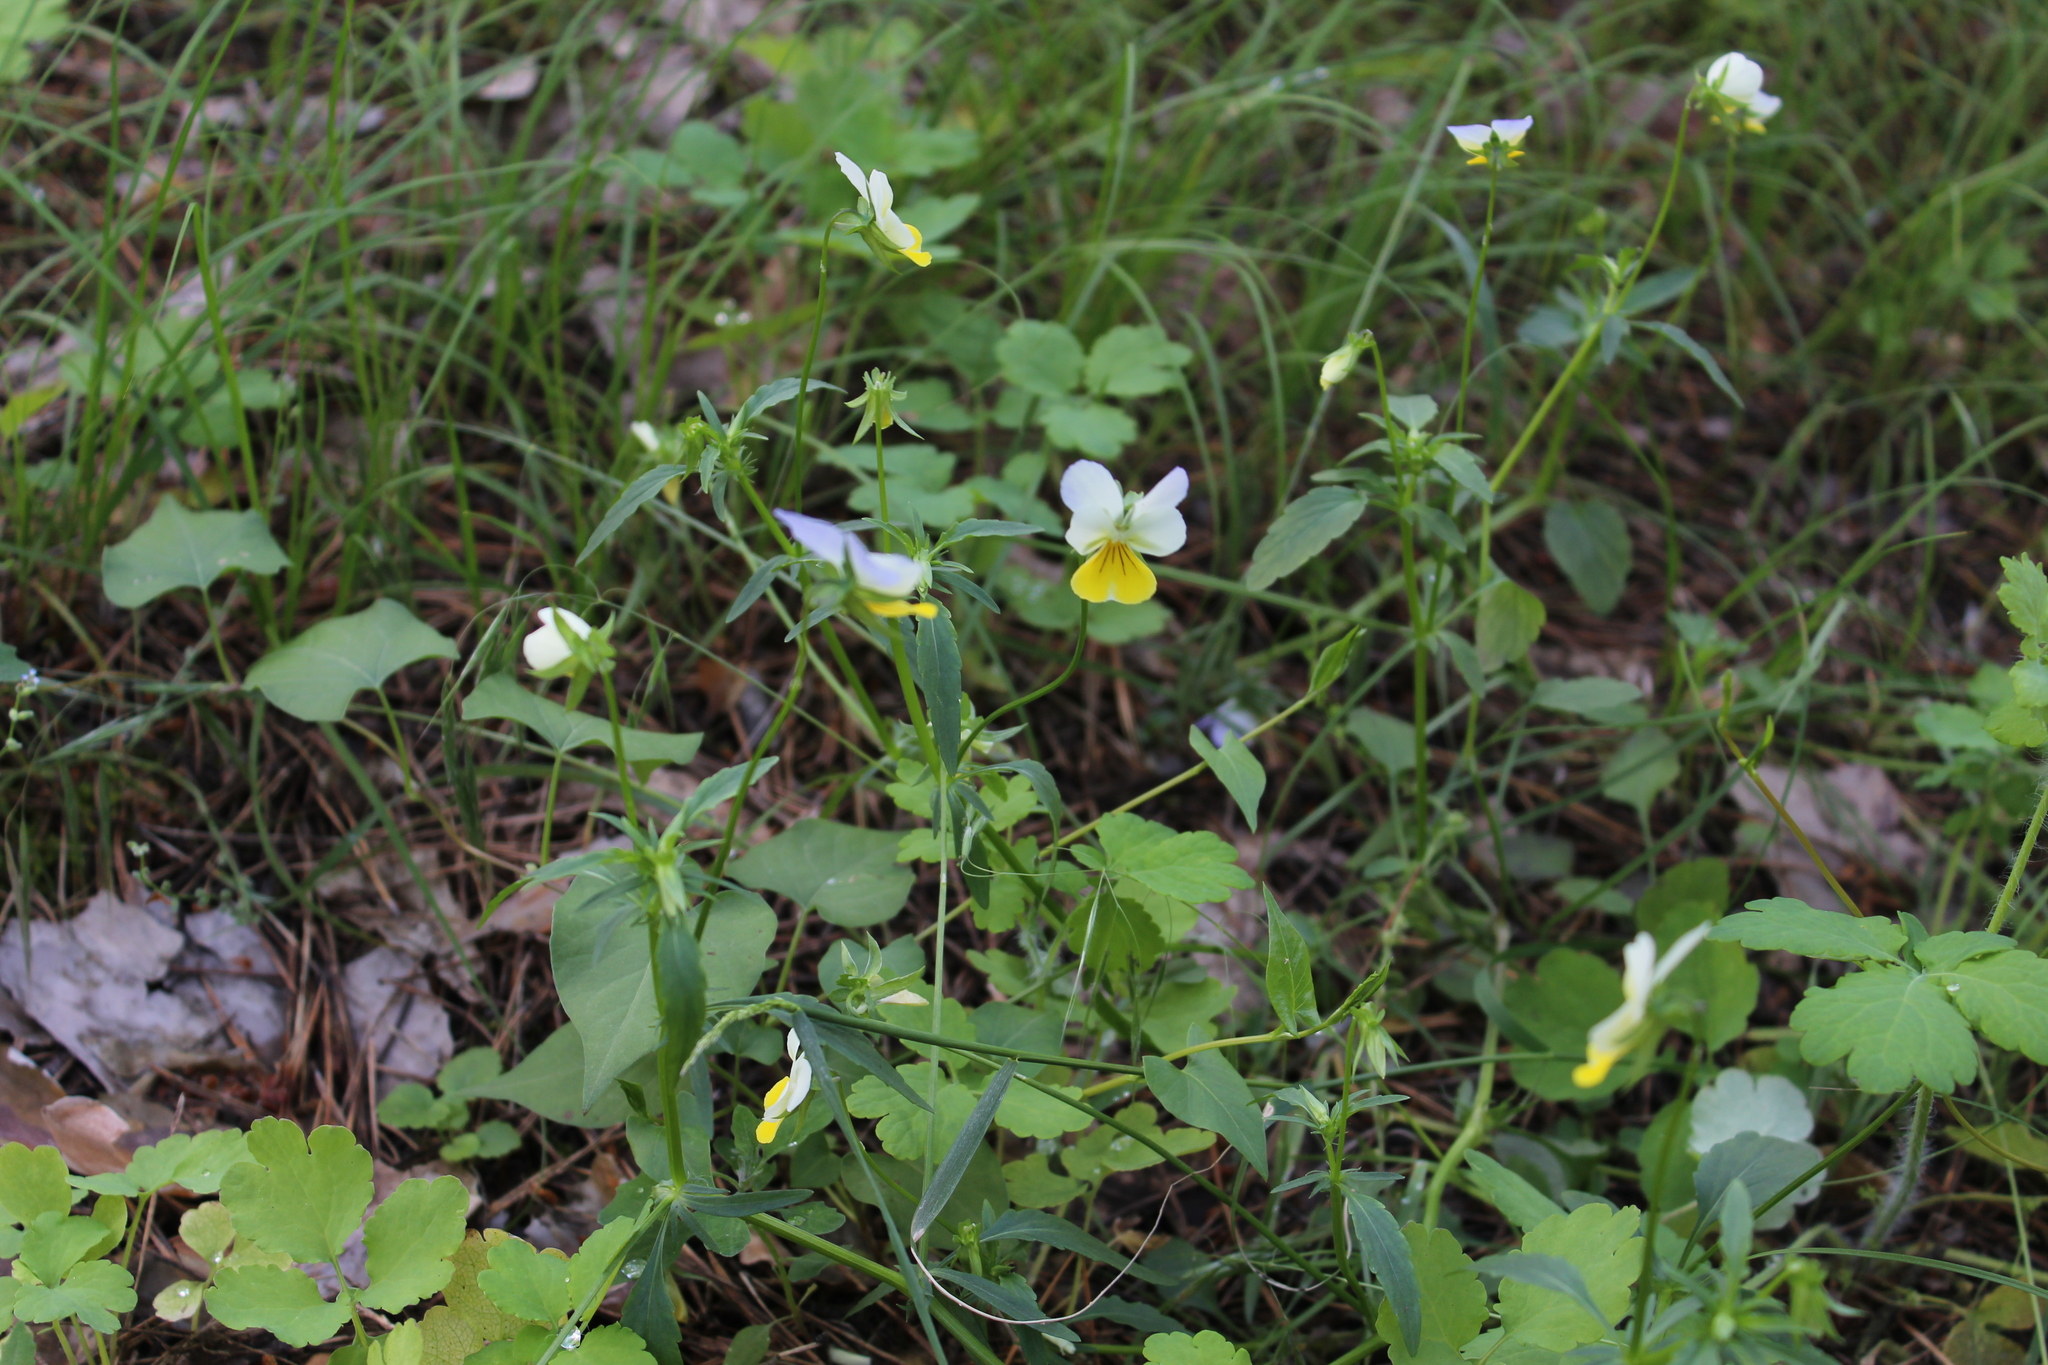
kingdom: Plantae
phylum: Tracheophyta
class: Magnoliopsida
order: Malpighiales
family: Violaceae
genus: Viola
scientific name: Viola tricolor
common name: Pansy
